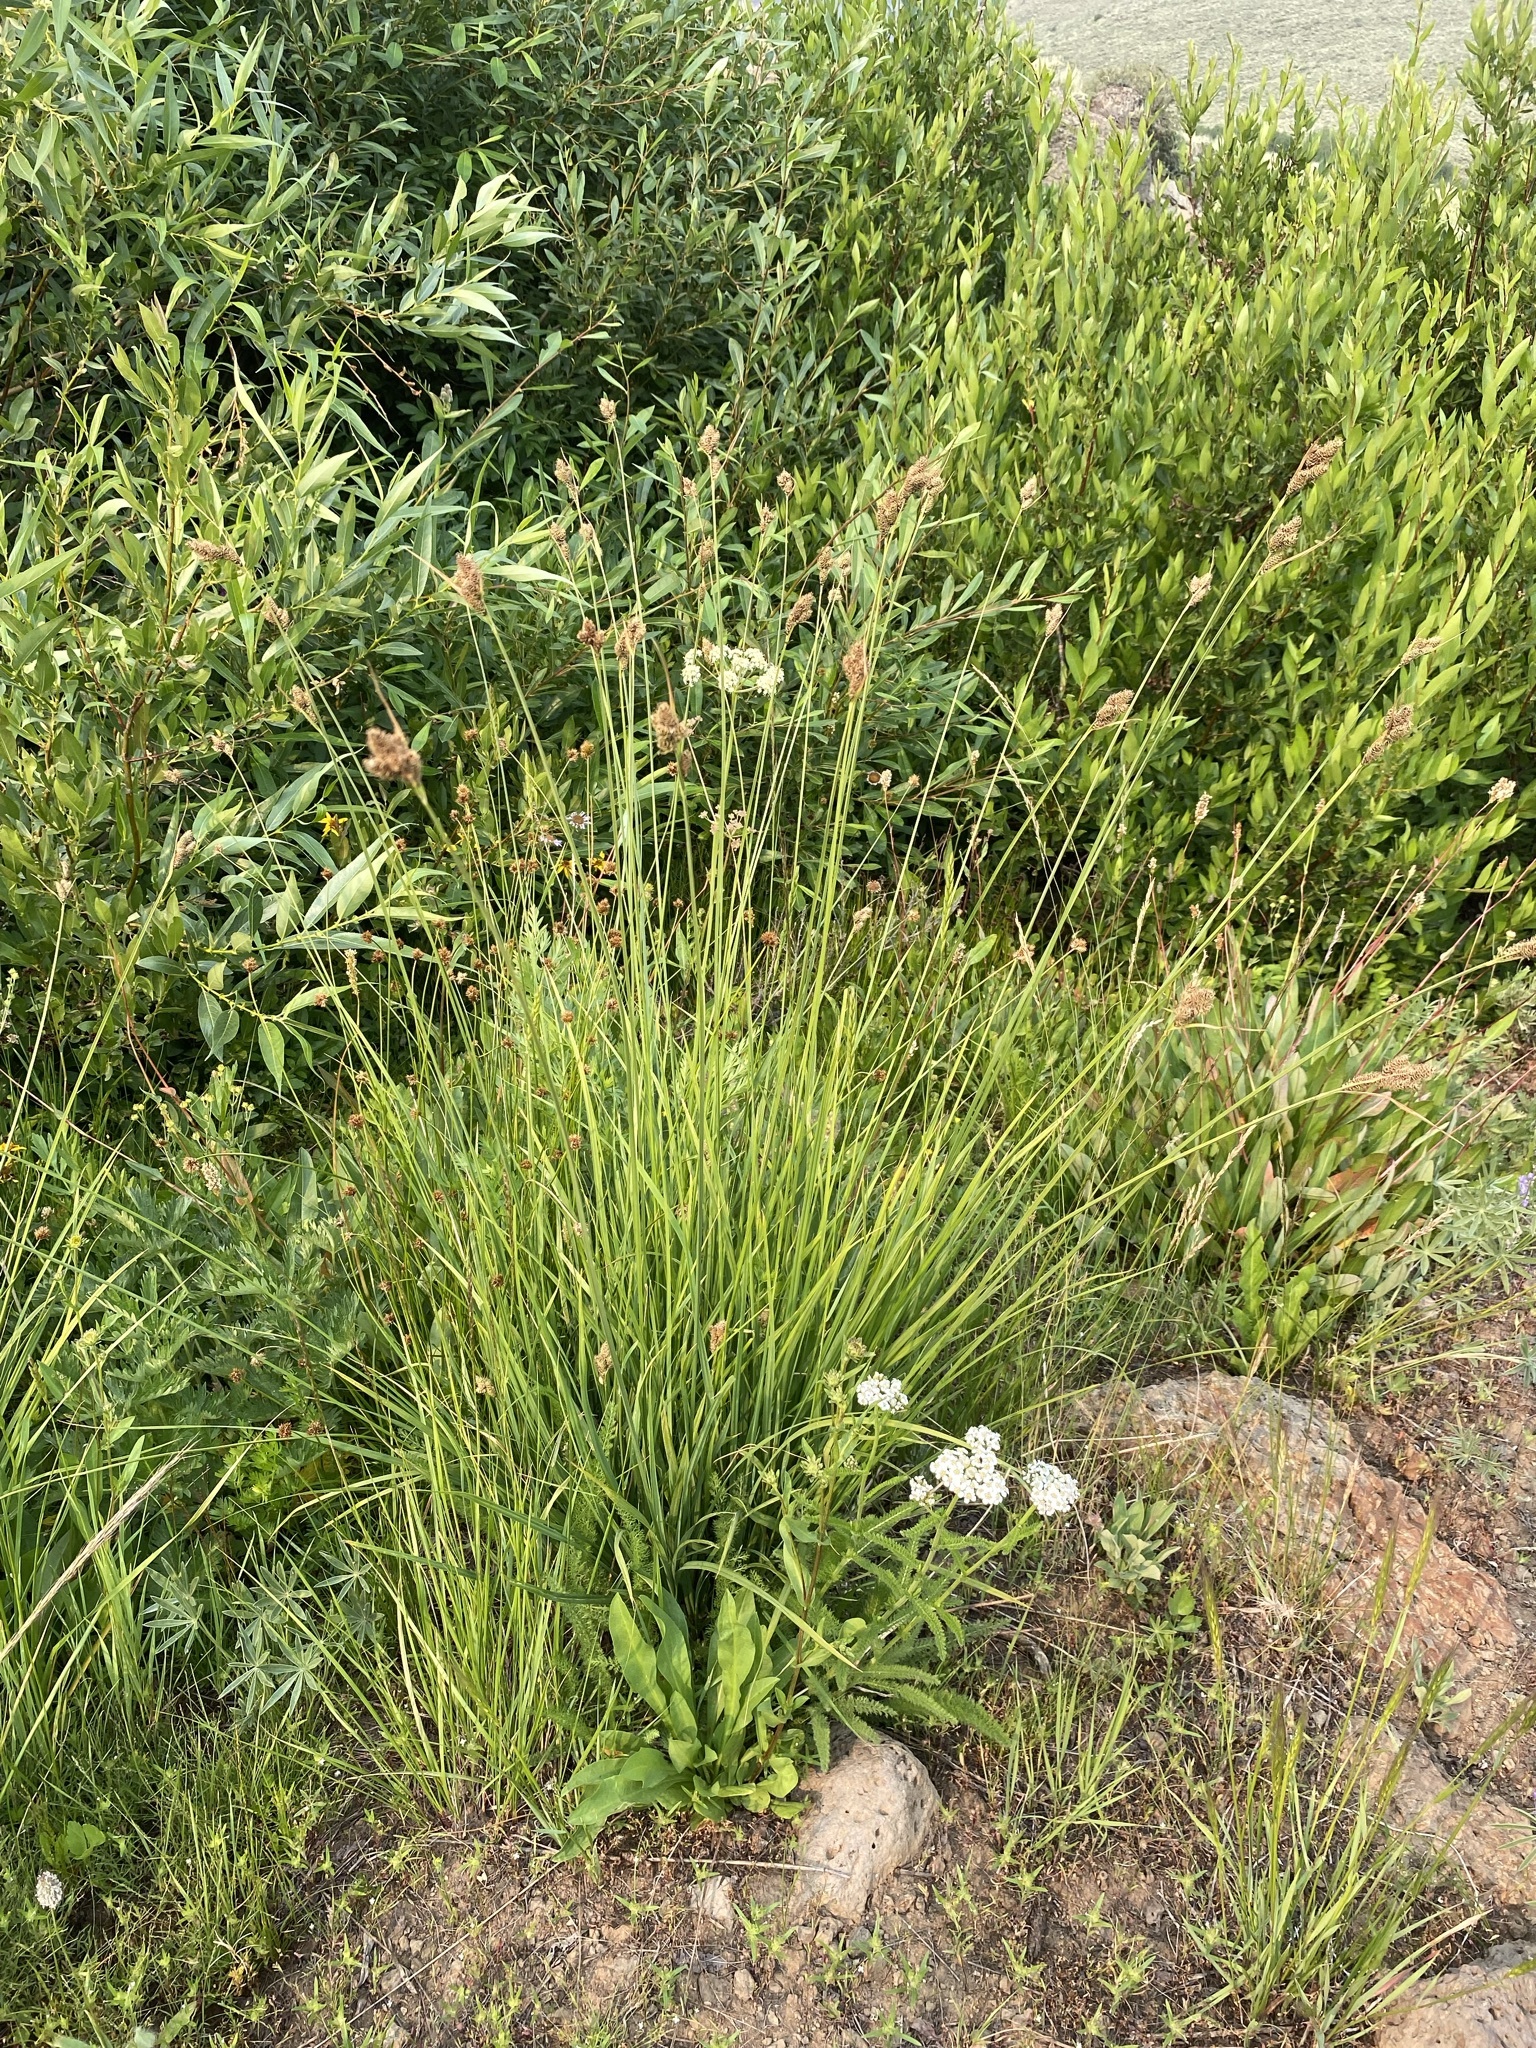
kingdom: Plantae
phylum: Tracheophyta
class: Liliopsida
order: Poales
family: Cyperaceae
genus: Carex
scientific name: Carex heteroneura
